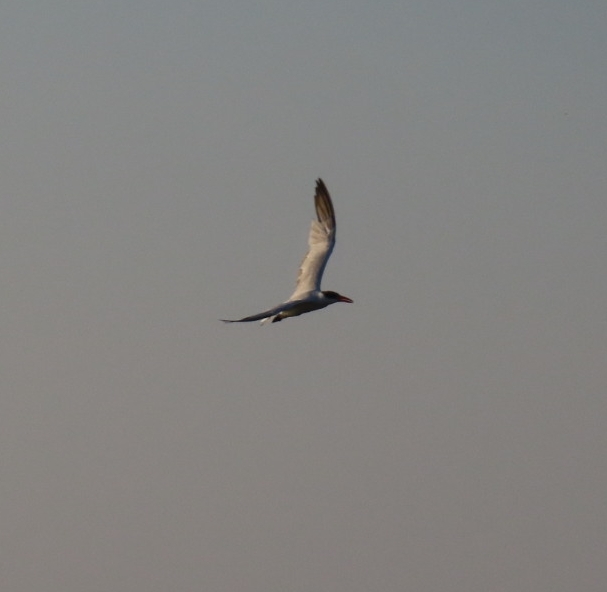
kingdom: Animalia
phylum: Chordata
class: Aves
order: Charadriiformes
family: Laridae
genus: Hydroprogne
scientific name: Hydroprogne caspia
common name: Caspian tern
